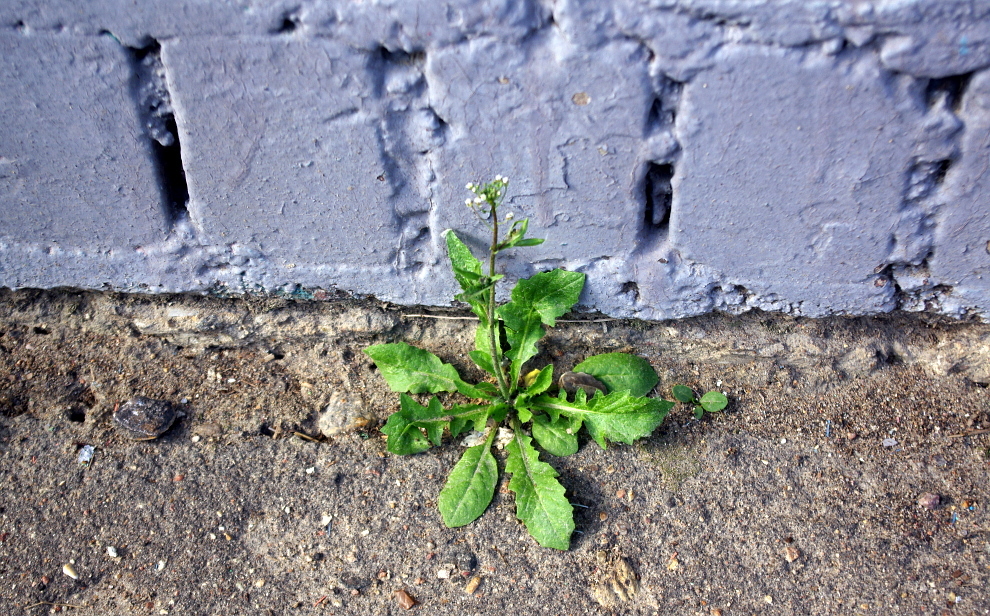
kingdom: Plantae
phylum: Tracheophyta
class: Magnoliopsida
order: Brassicales
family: Brassicaceae
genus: Capsella
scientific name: Capsella bursa-pastoris
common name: Shepherd's purse
